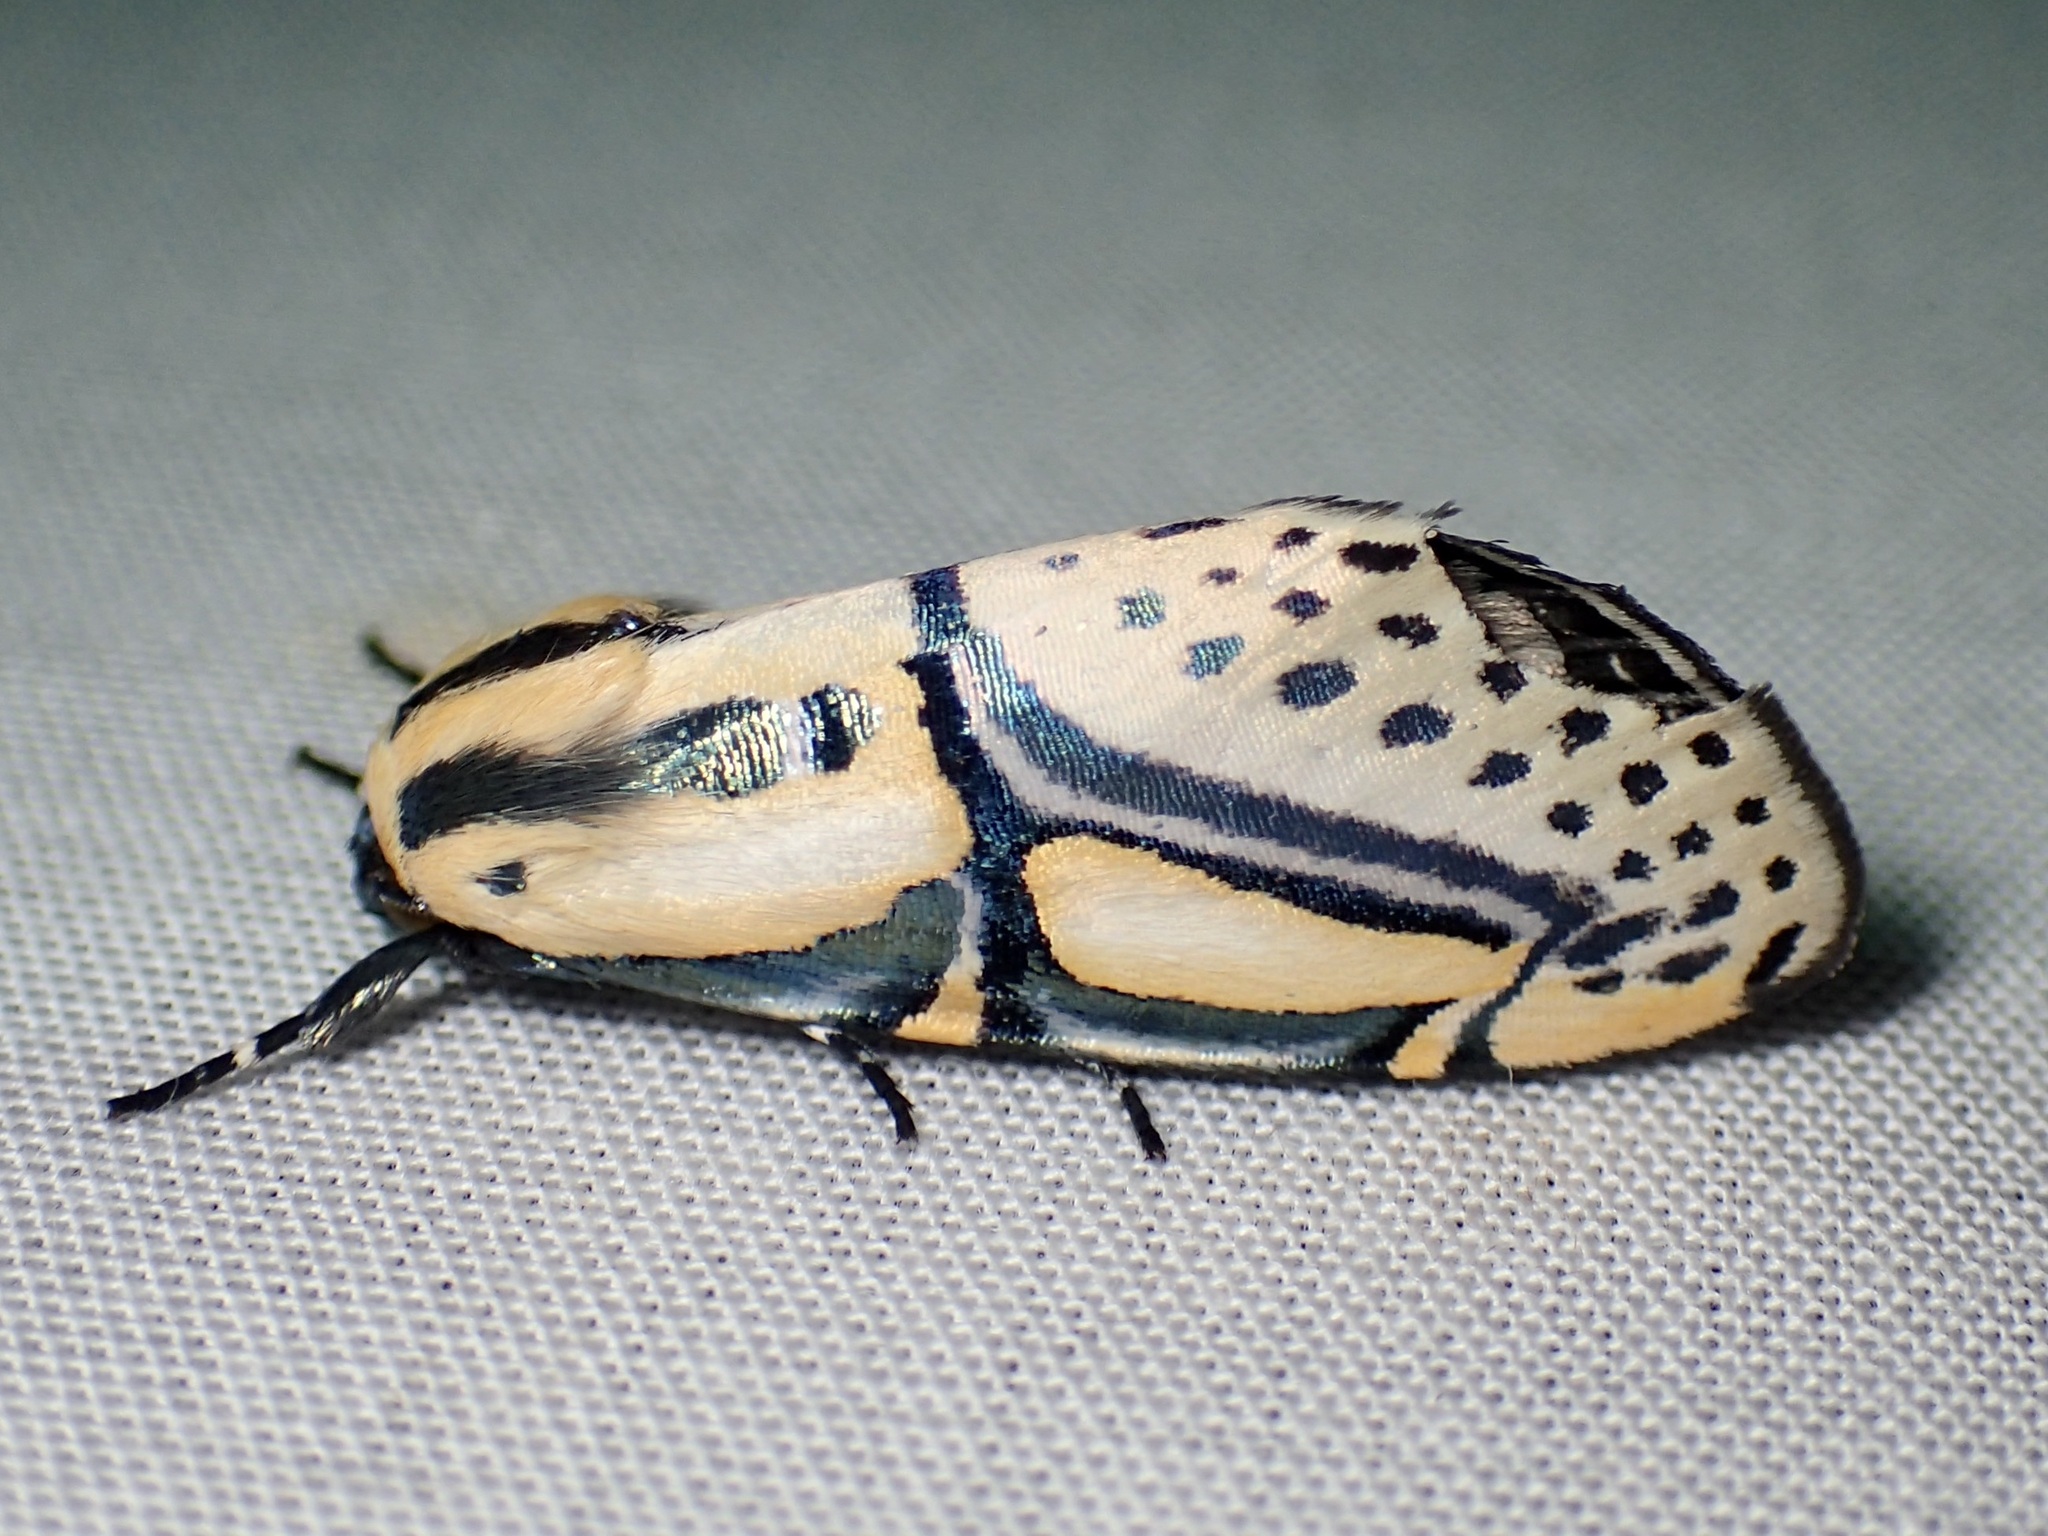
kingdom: Animalia
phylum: Arthropoda
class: Insecta
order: Lepidoptera
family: Erebidae
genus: Diphthera
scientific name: Diphthera festiva
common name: Hieroglyphic moth
